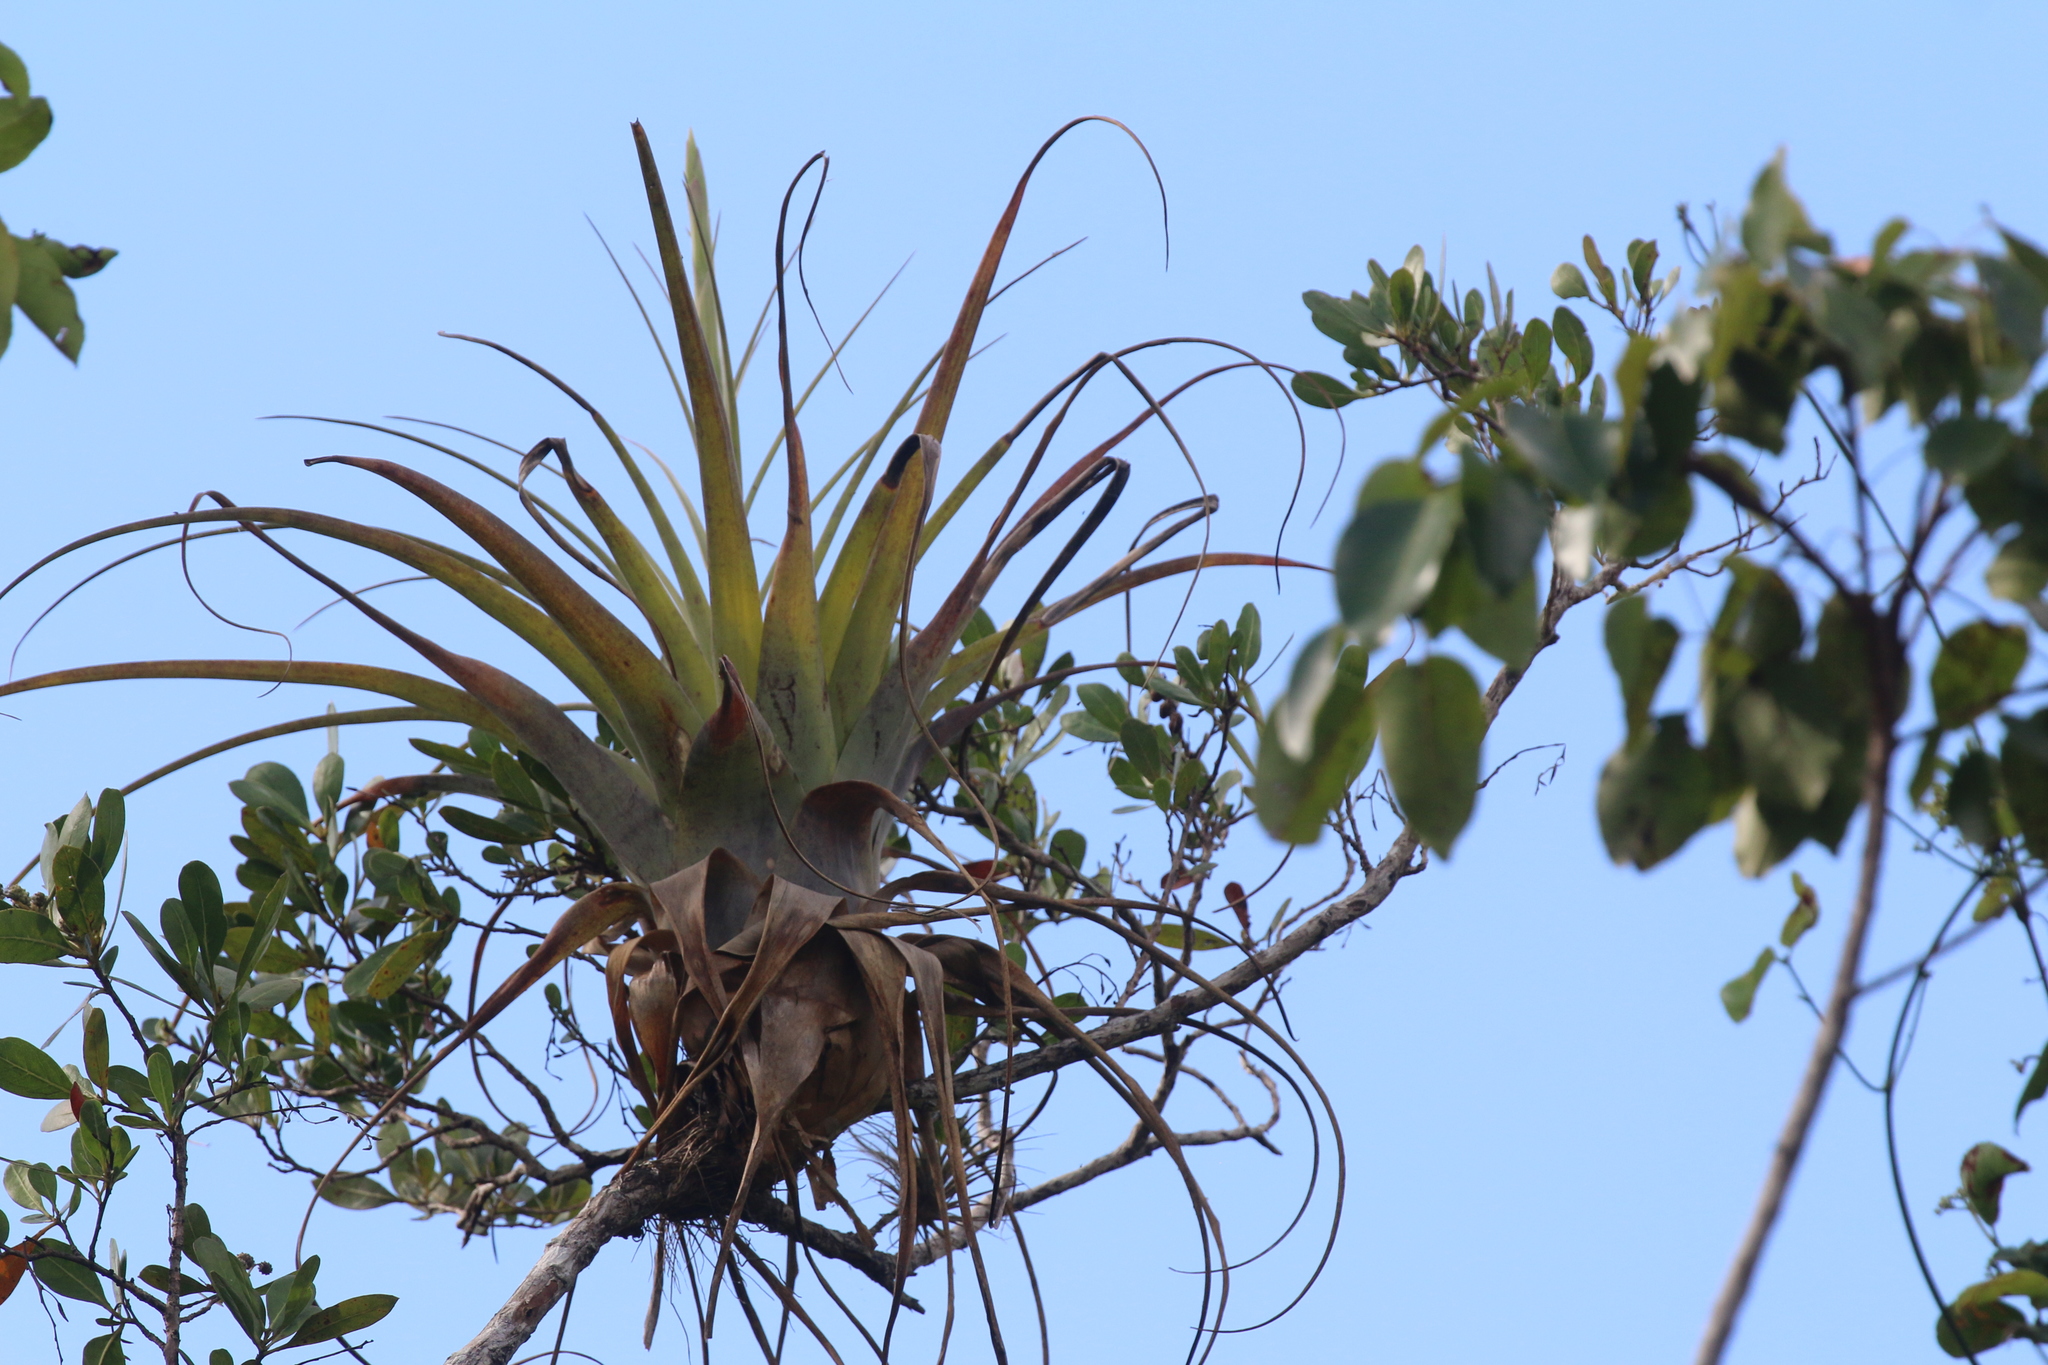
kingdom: Plantae
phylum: Tracheophyta
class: Liliopsida
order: Poales
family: Bromeliaceae
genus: Tillandsia
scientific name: Tillandsia utriculata
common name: Wild pine
